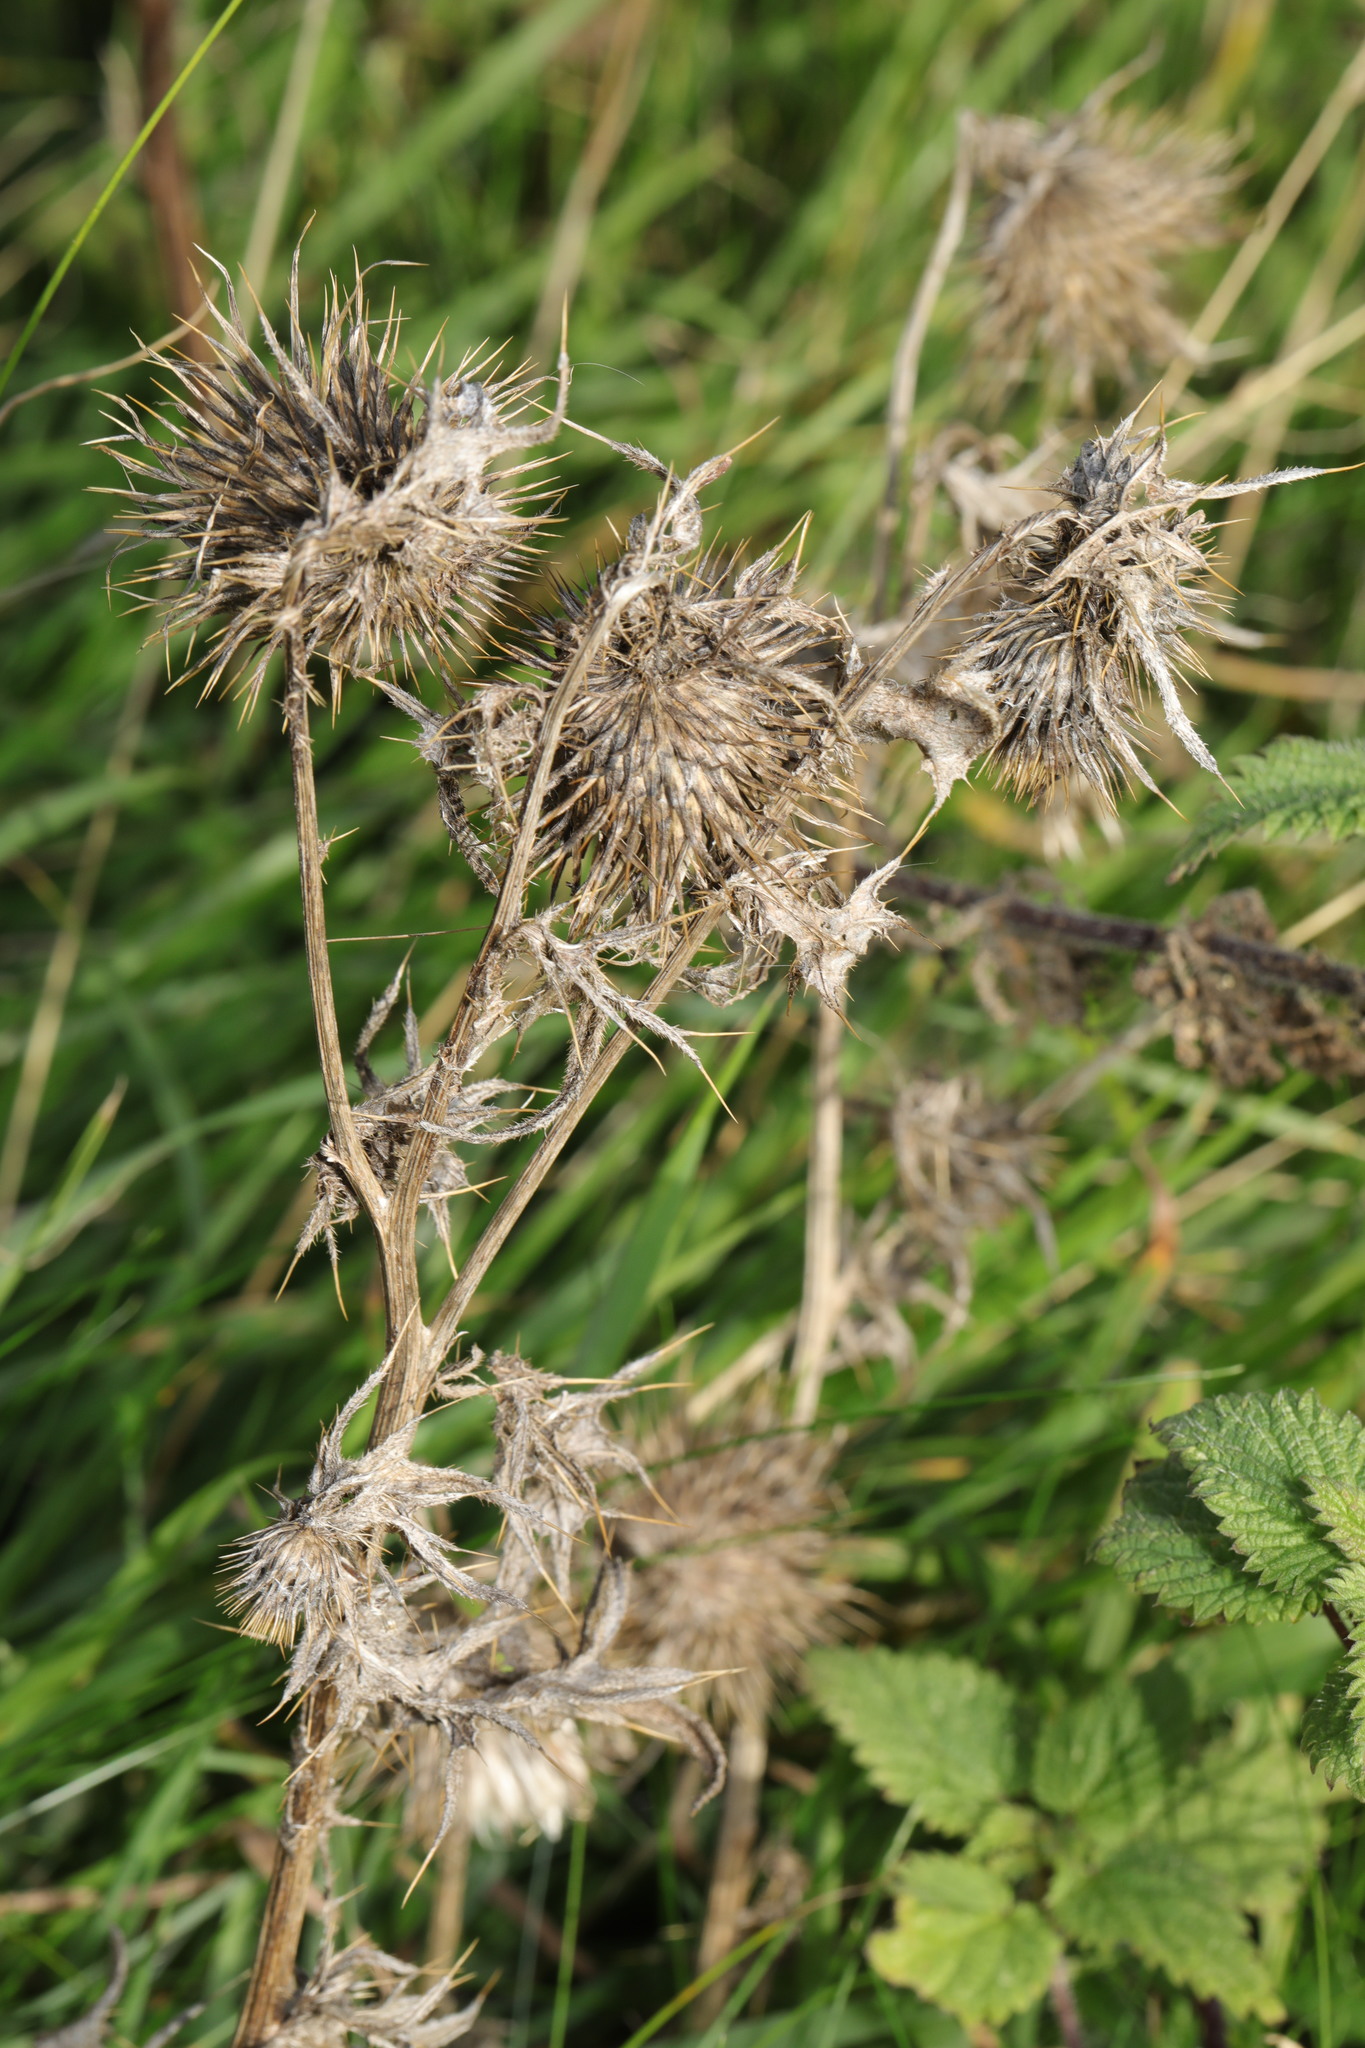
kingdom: Plantae
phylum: Tracheophyta
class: Magnoliopsida
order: Asterales
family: Asteraceae
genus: Cirsium
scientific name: Cirsium vulgare
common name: Bull thistle
